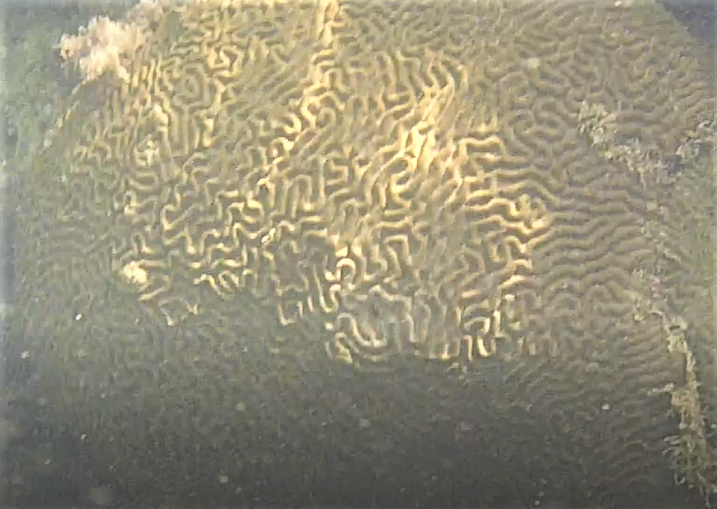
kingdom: Animalia
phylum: Cnidaria
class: Anthozoa
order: Scleractinia
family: Faviidae
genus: Pseudodiploria
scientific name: Pseudodiploria strigosa
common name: Symmetrical brain coral
